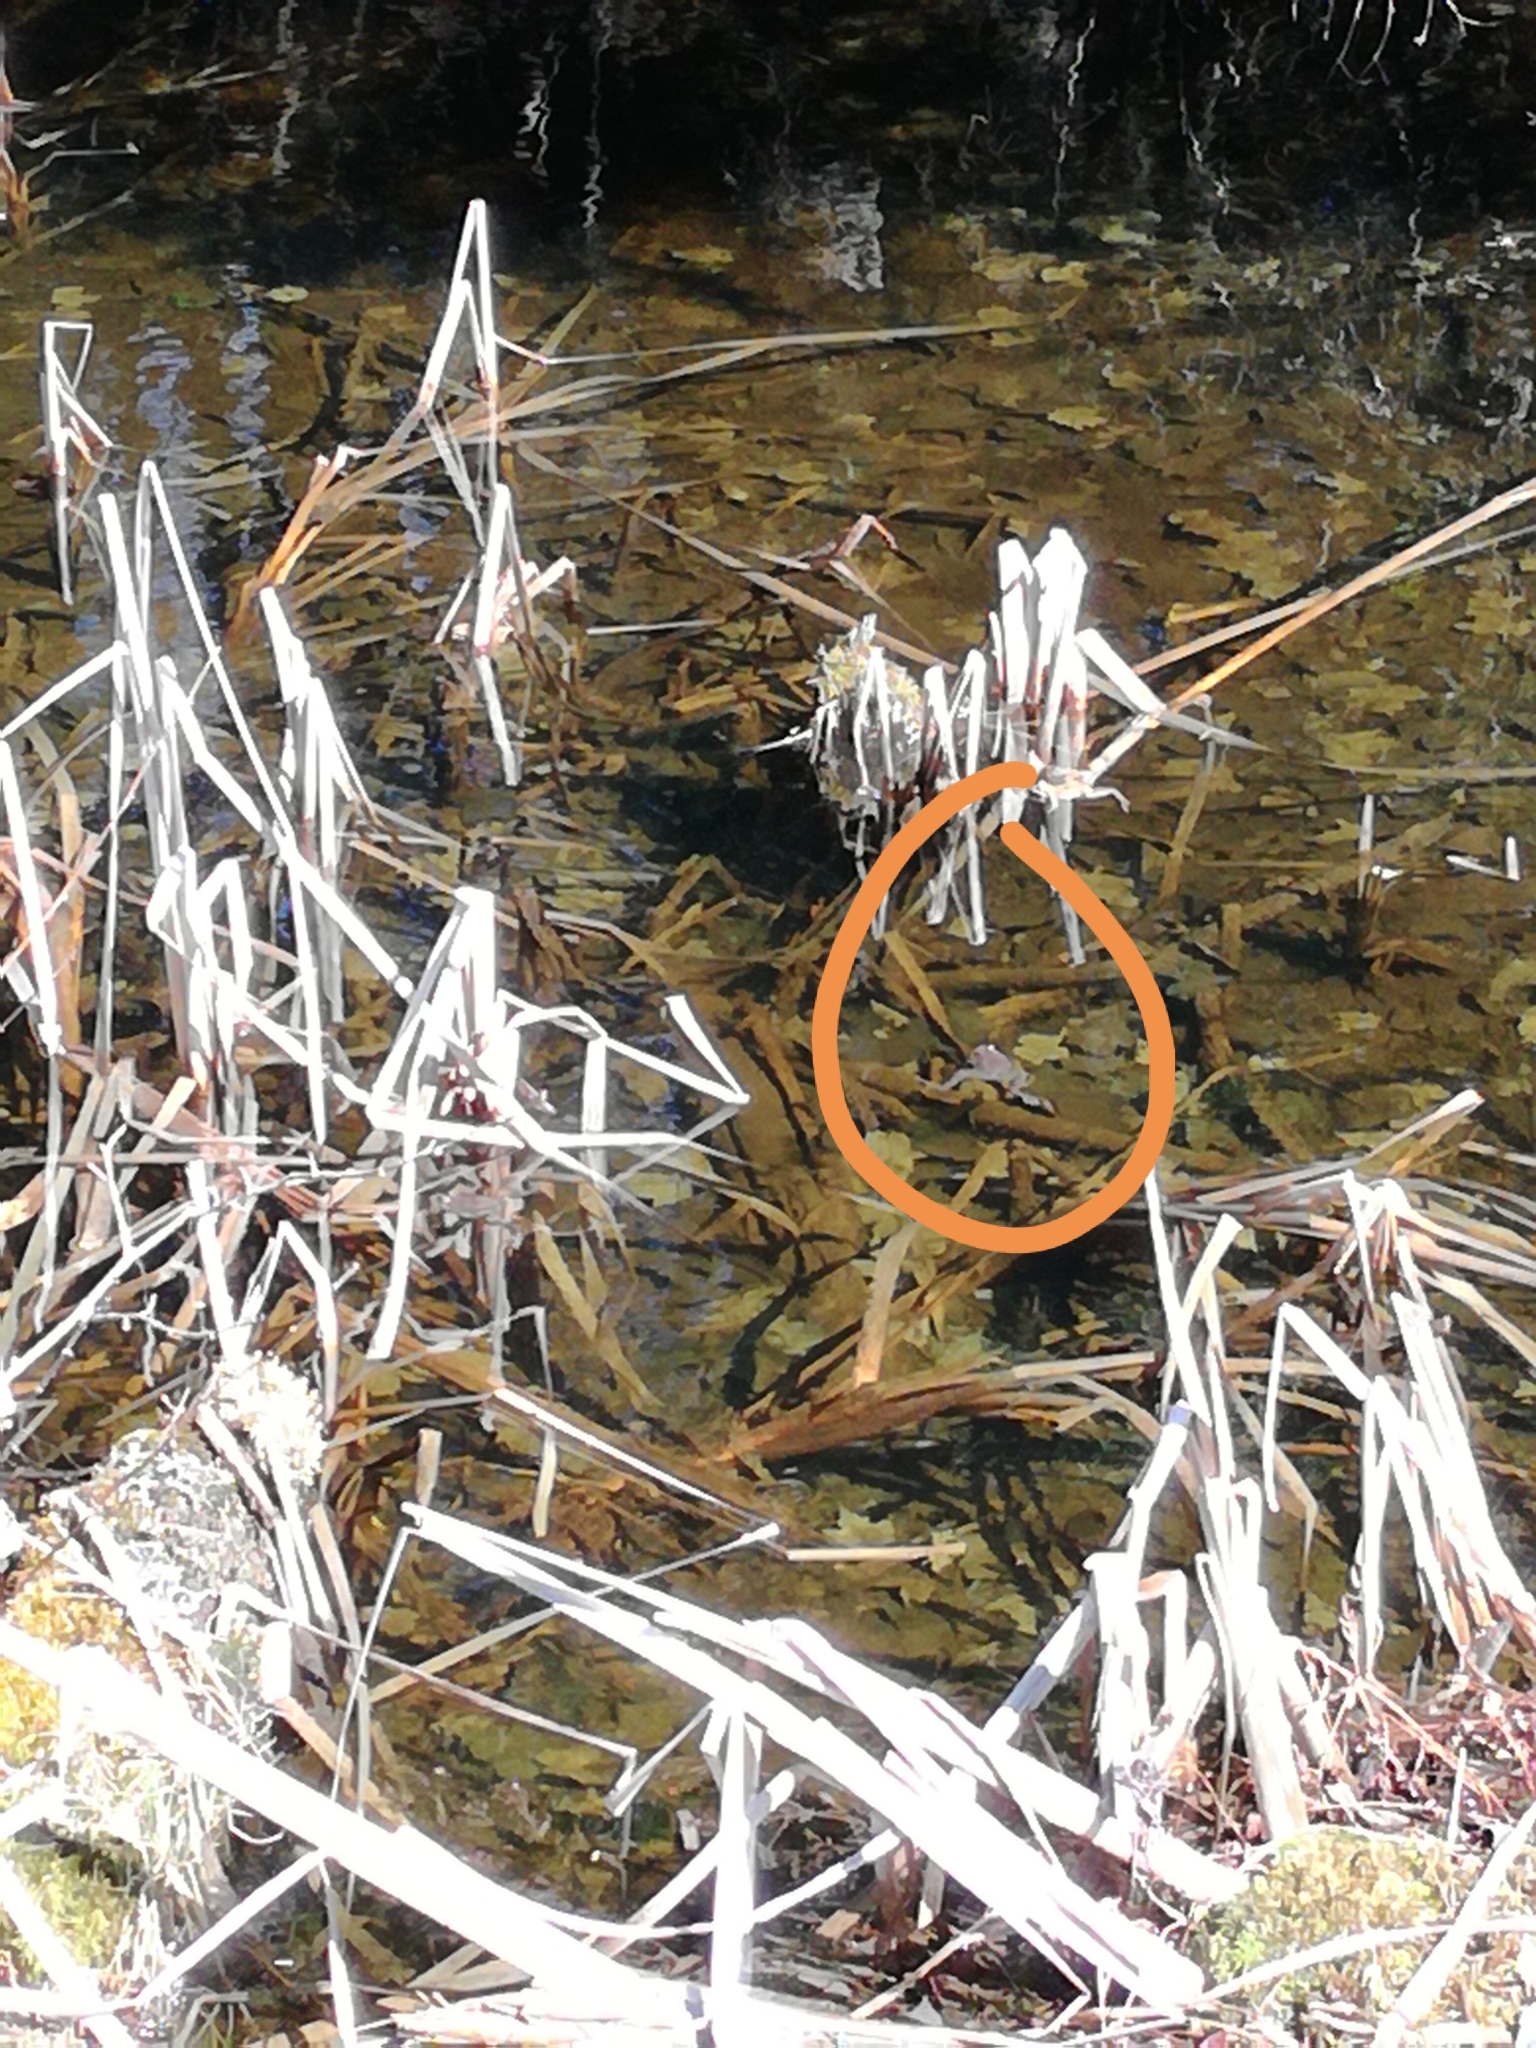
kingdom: Animalia
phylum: Chordata
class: Amphibia
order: Anura
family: Ranidae
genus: Lithobates
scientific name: Lithobates sylvaticus
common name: Wood frog
